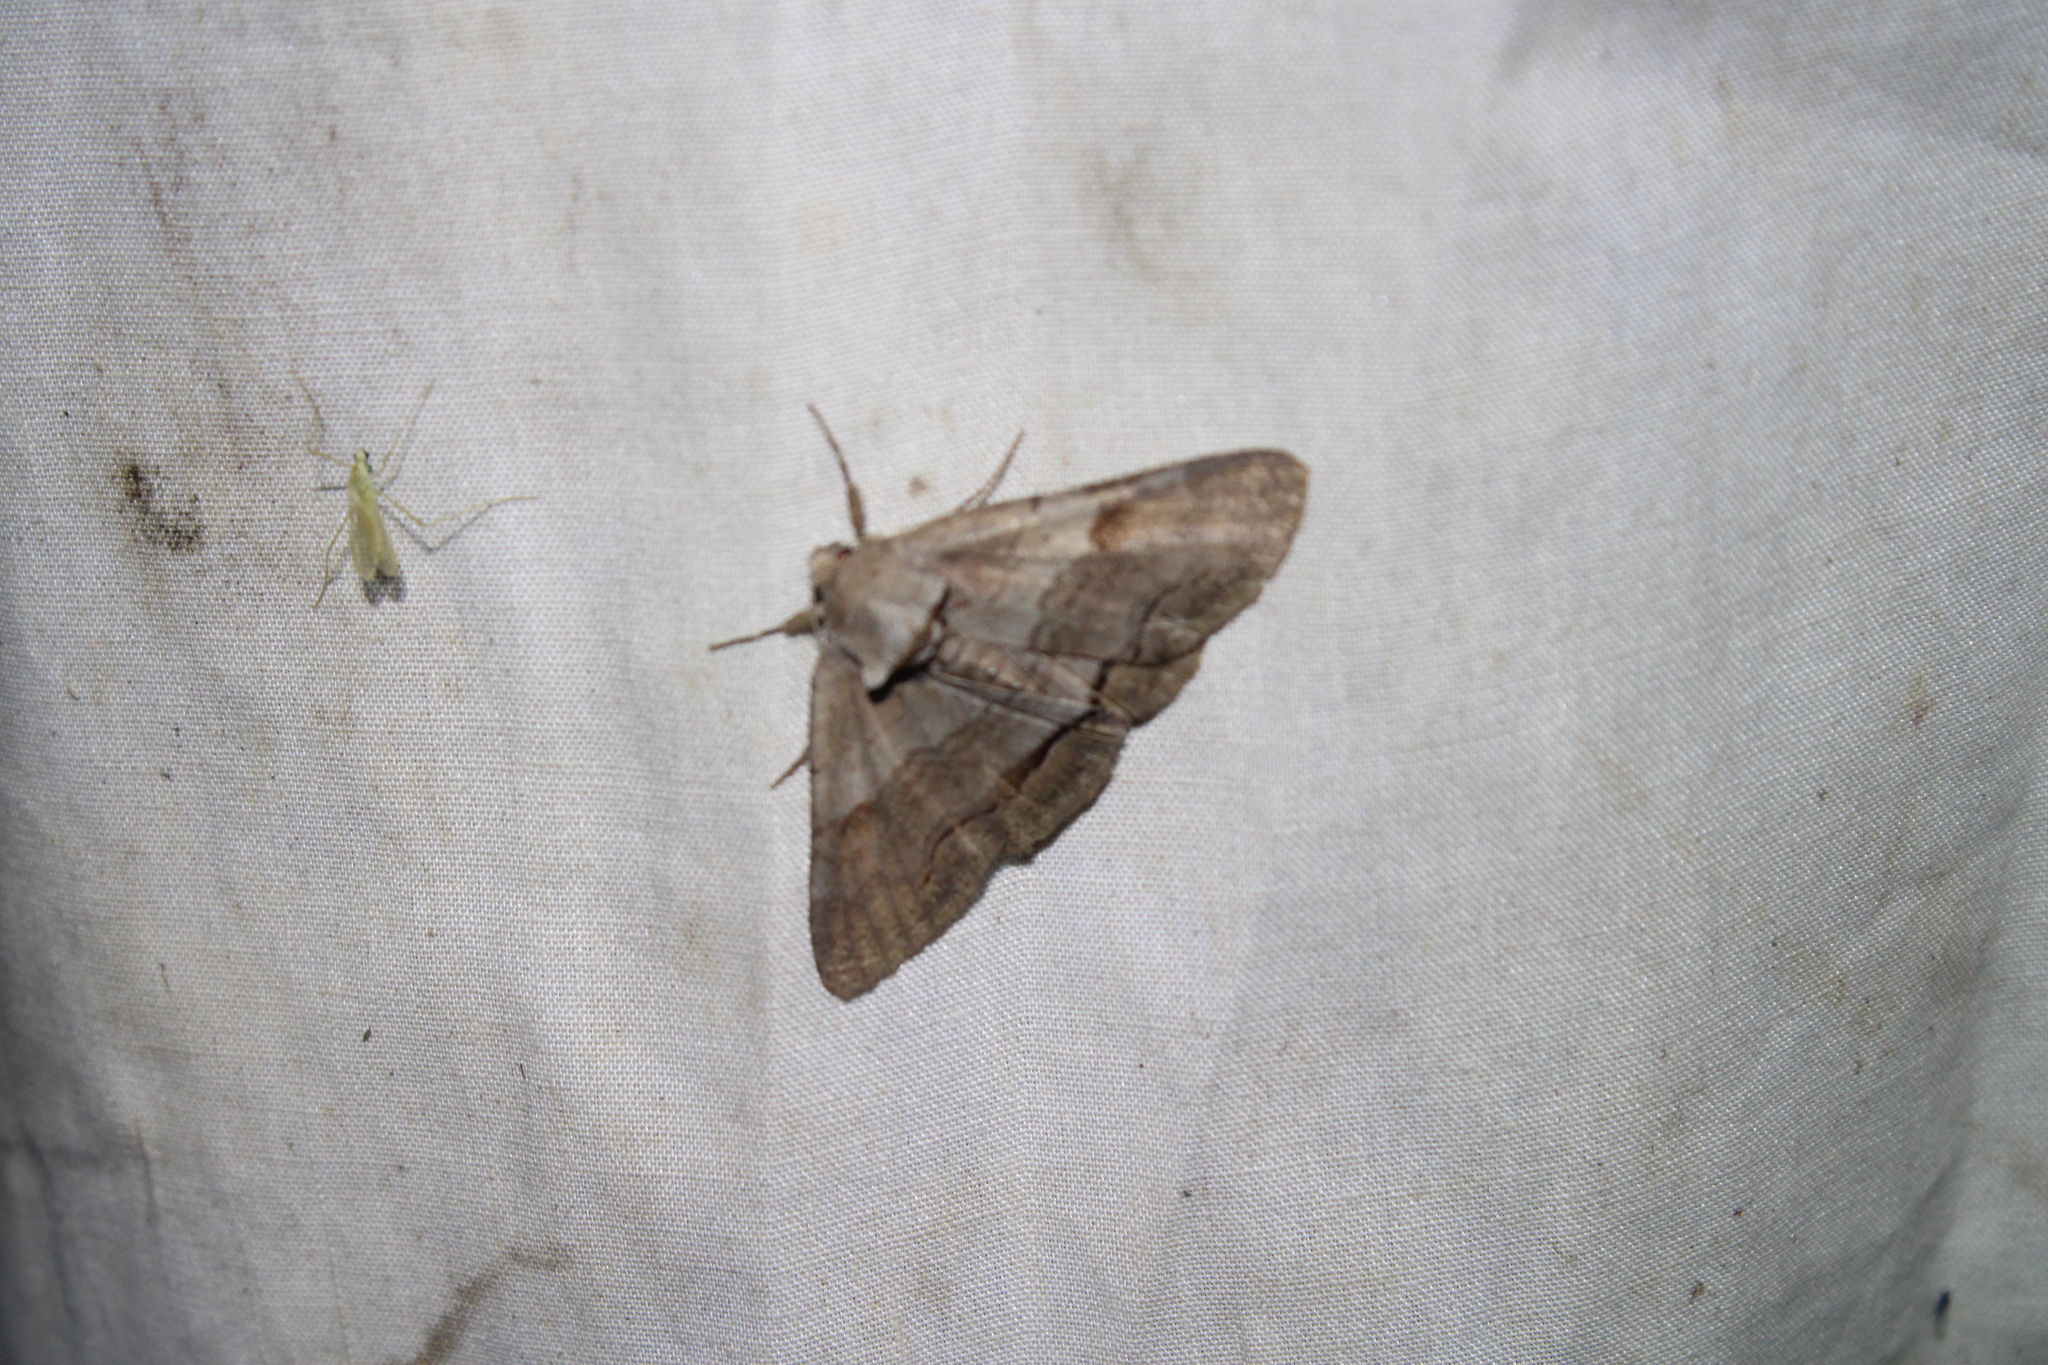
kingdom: Animalia
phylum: Arthropoda
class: Insecta
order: Lepidoptera
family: Erebidae
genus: Zale
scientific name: Zale obliqua
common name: Oblique zale moth
